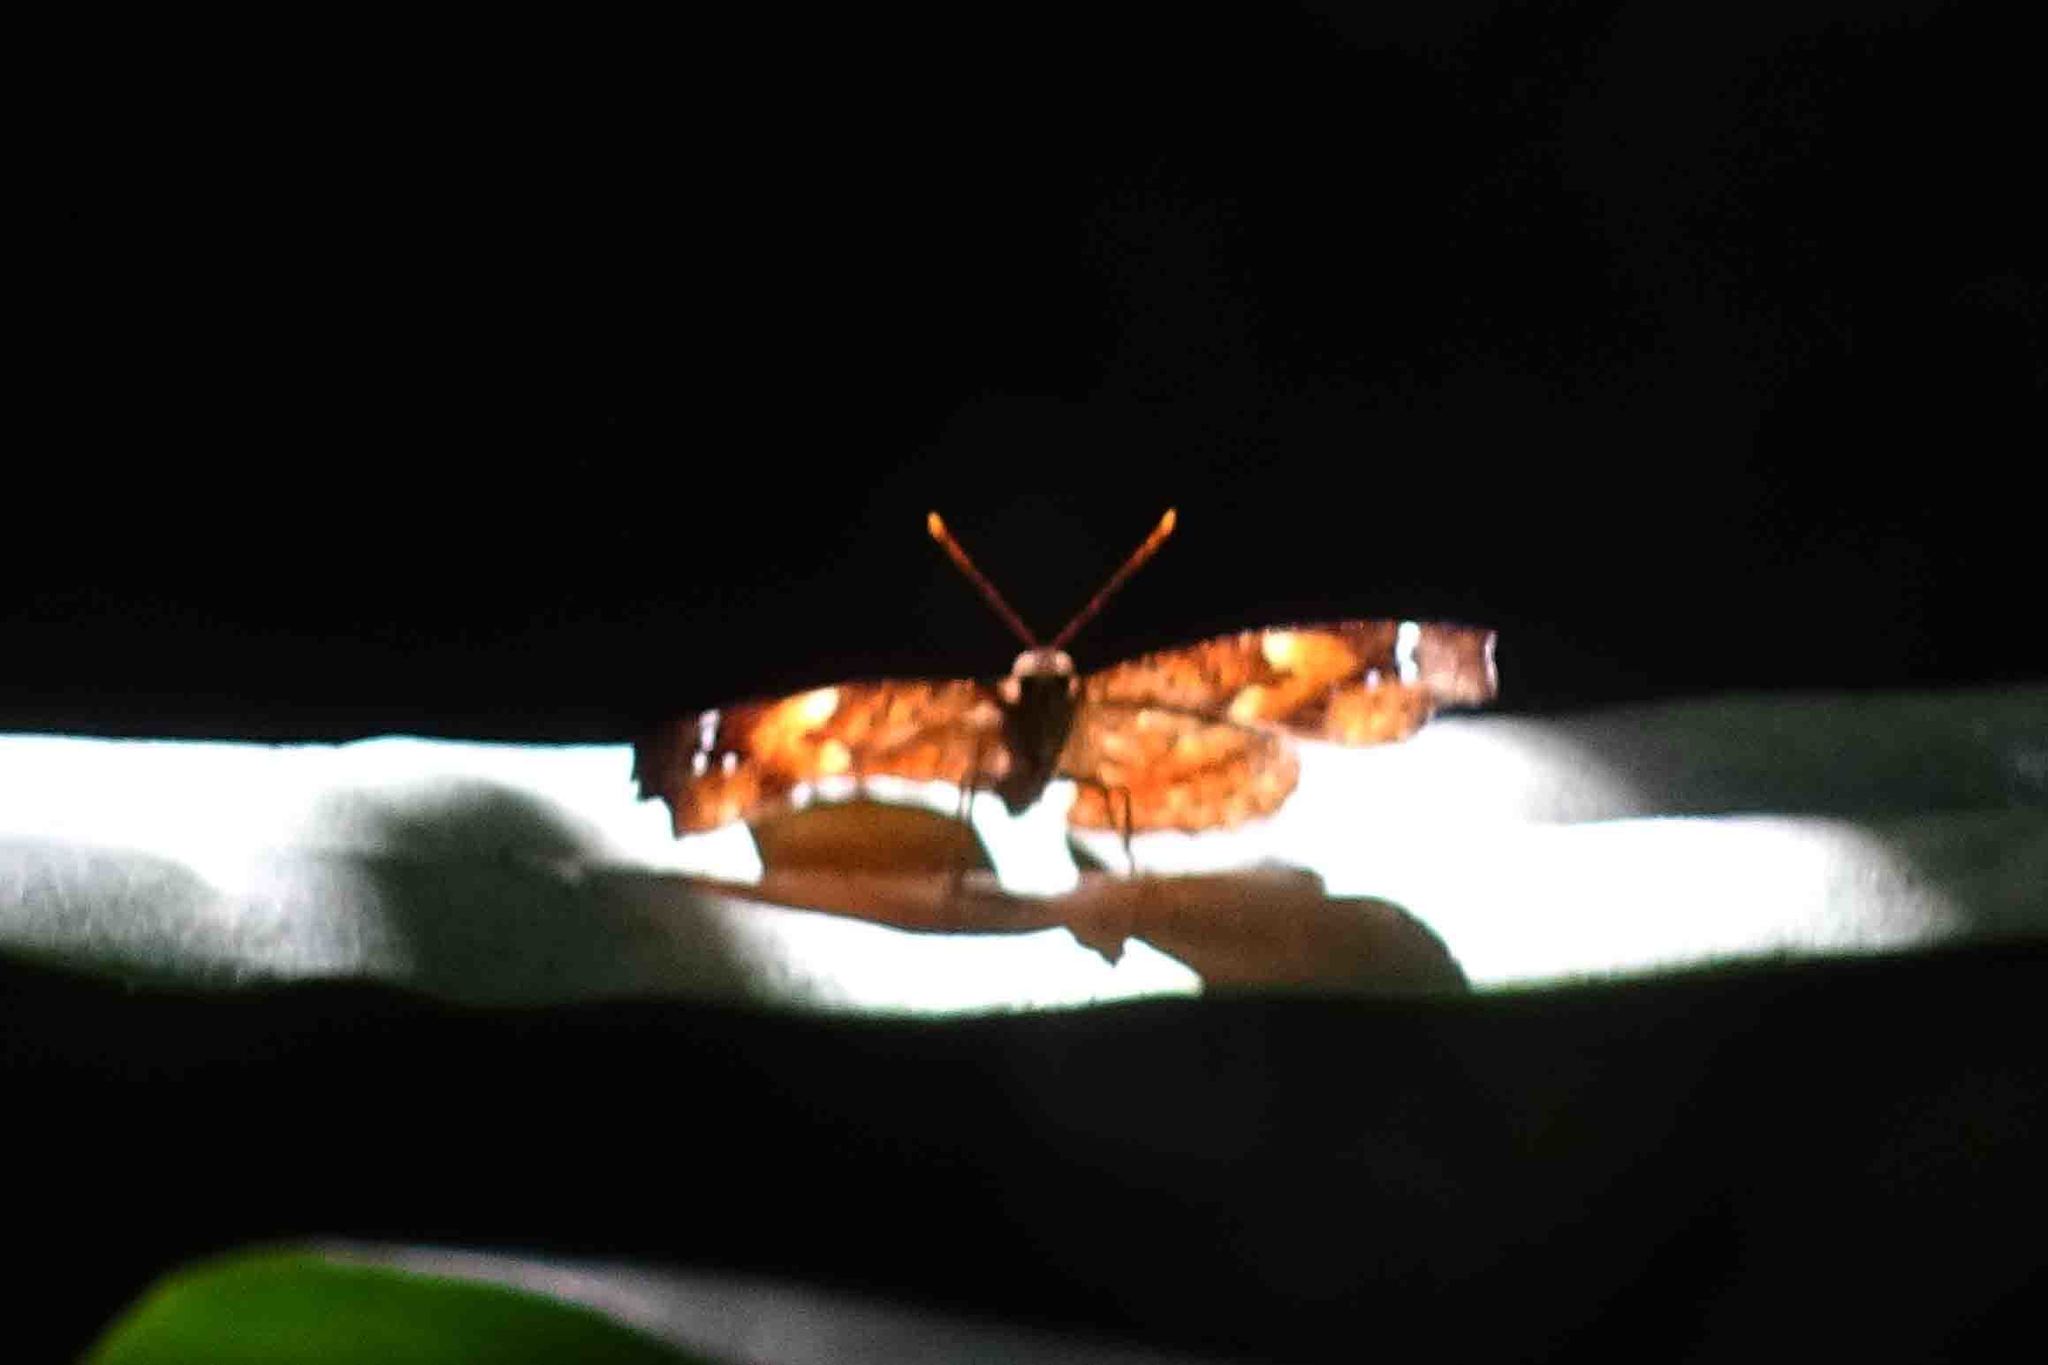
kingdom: Animalia
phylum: Arthropoda
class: Insecta
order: Lepidoptera
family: Nymphalidae
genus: Apatura
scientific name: Apatura Rohana spec
